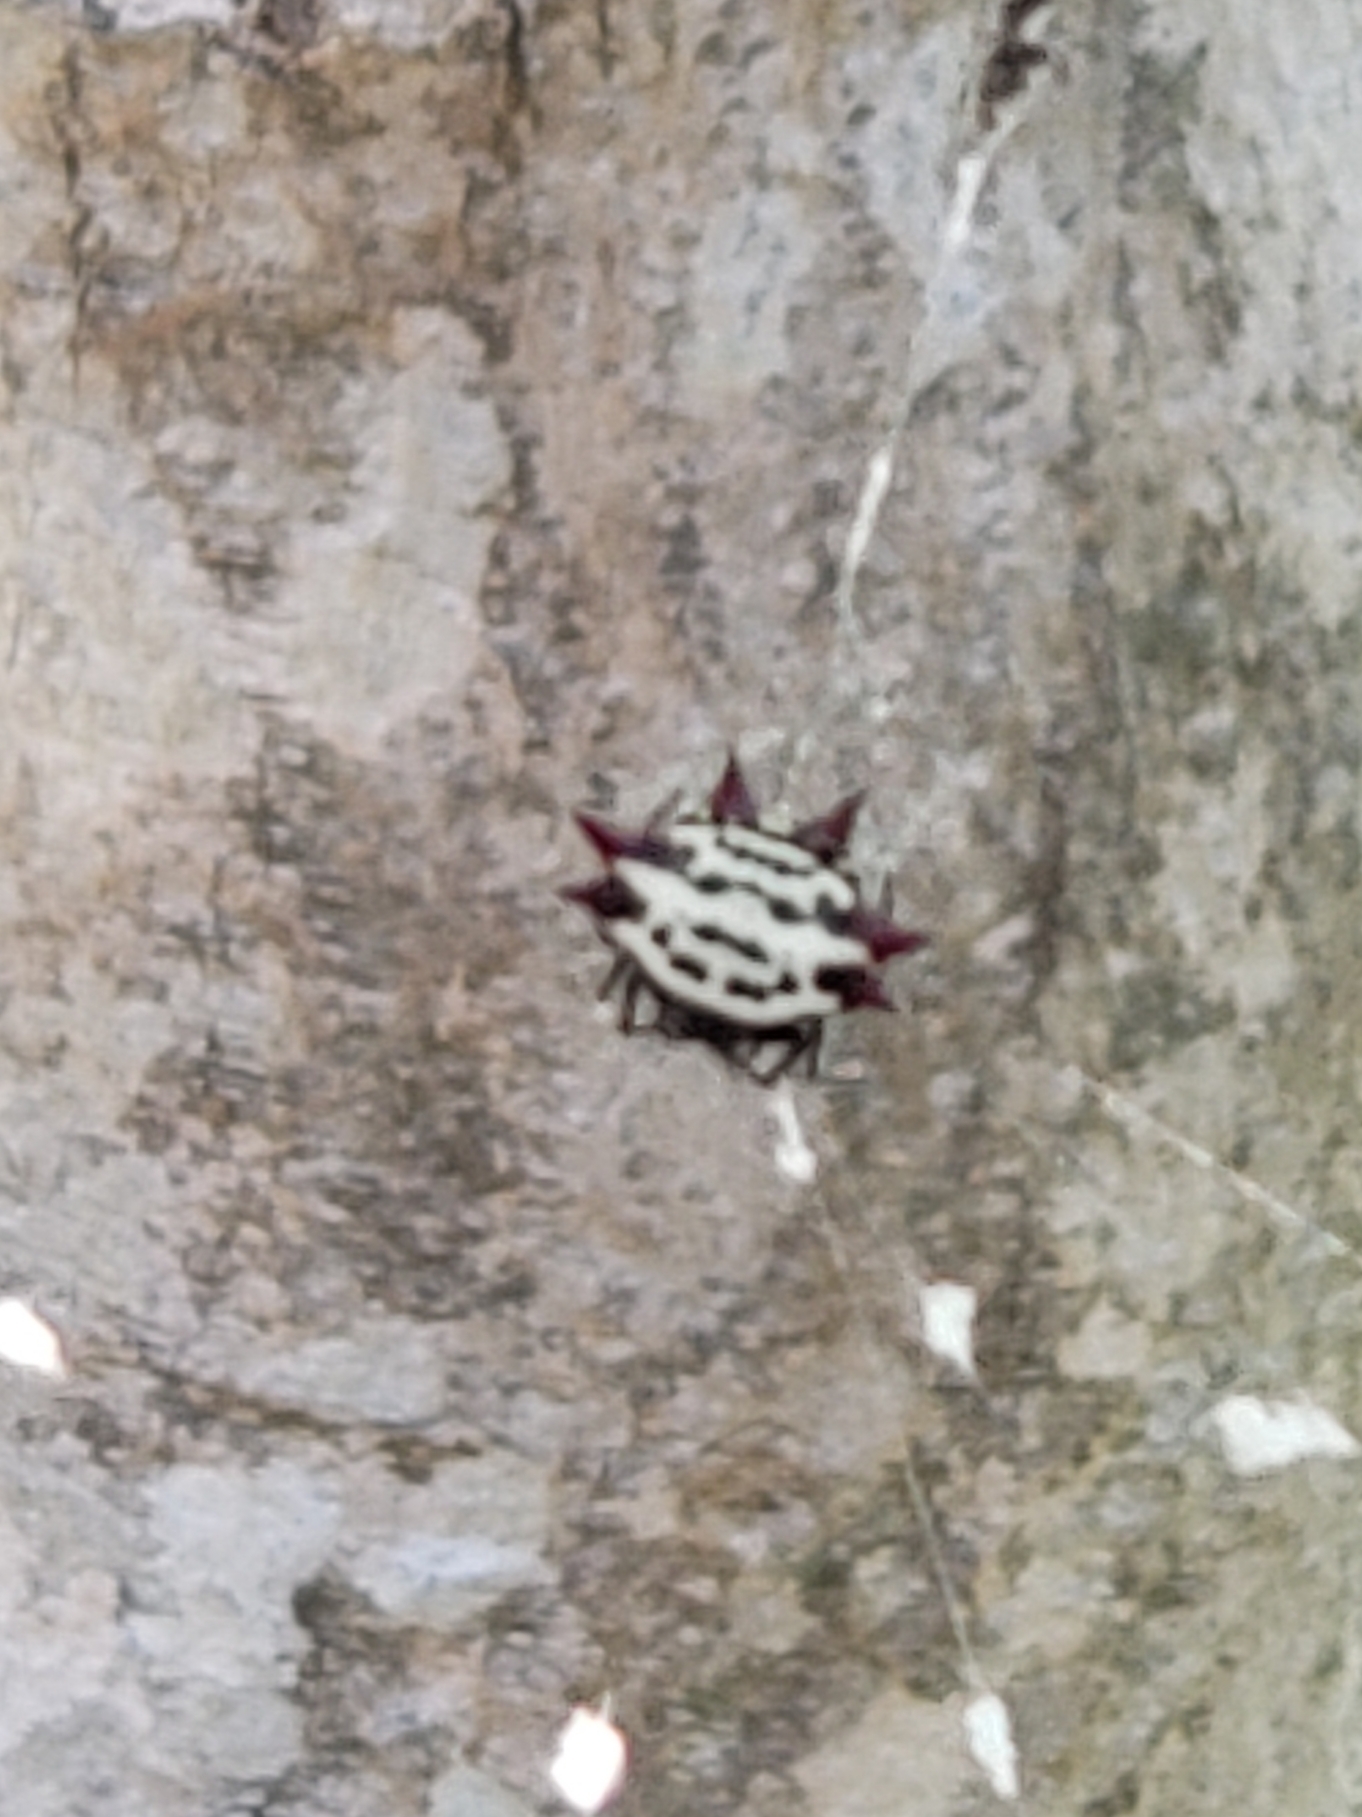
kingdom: Animalia
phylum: Arthropoda
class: Arachnida
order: Araneae
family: Araneidae
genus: Gasteracantha
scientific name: Gasteracantha cancriformis
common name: Orb weavers
